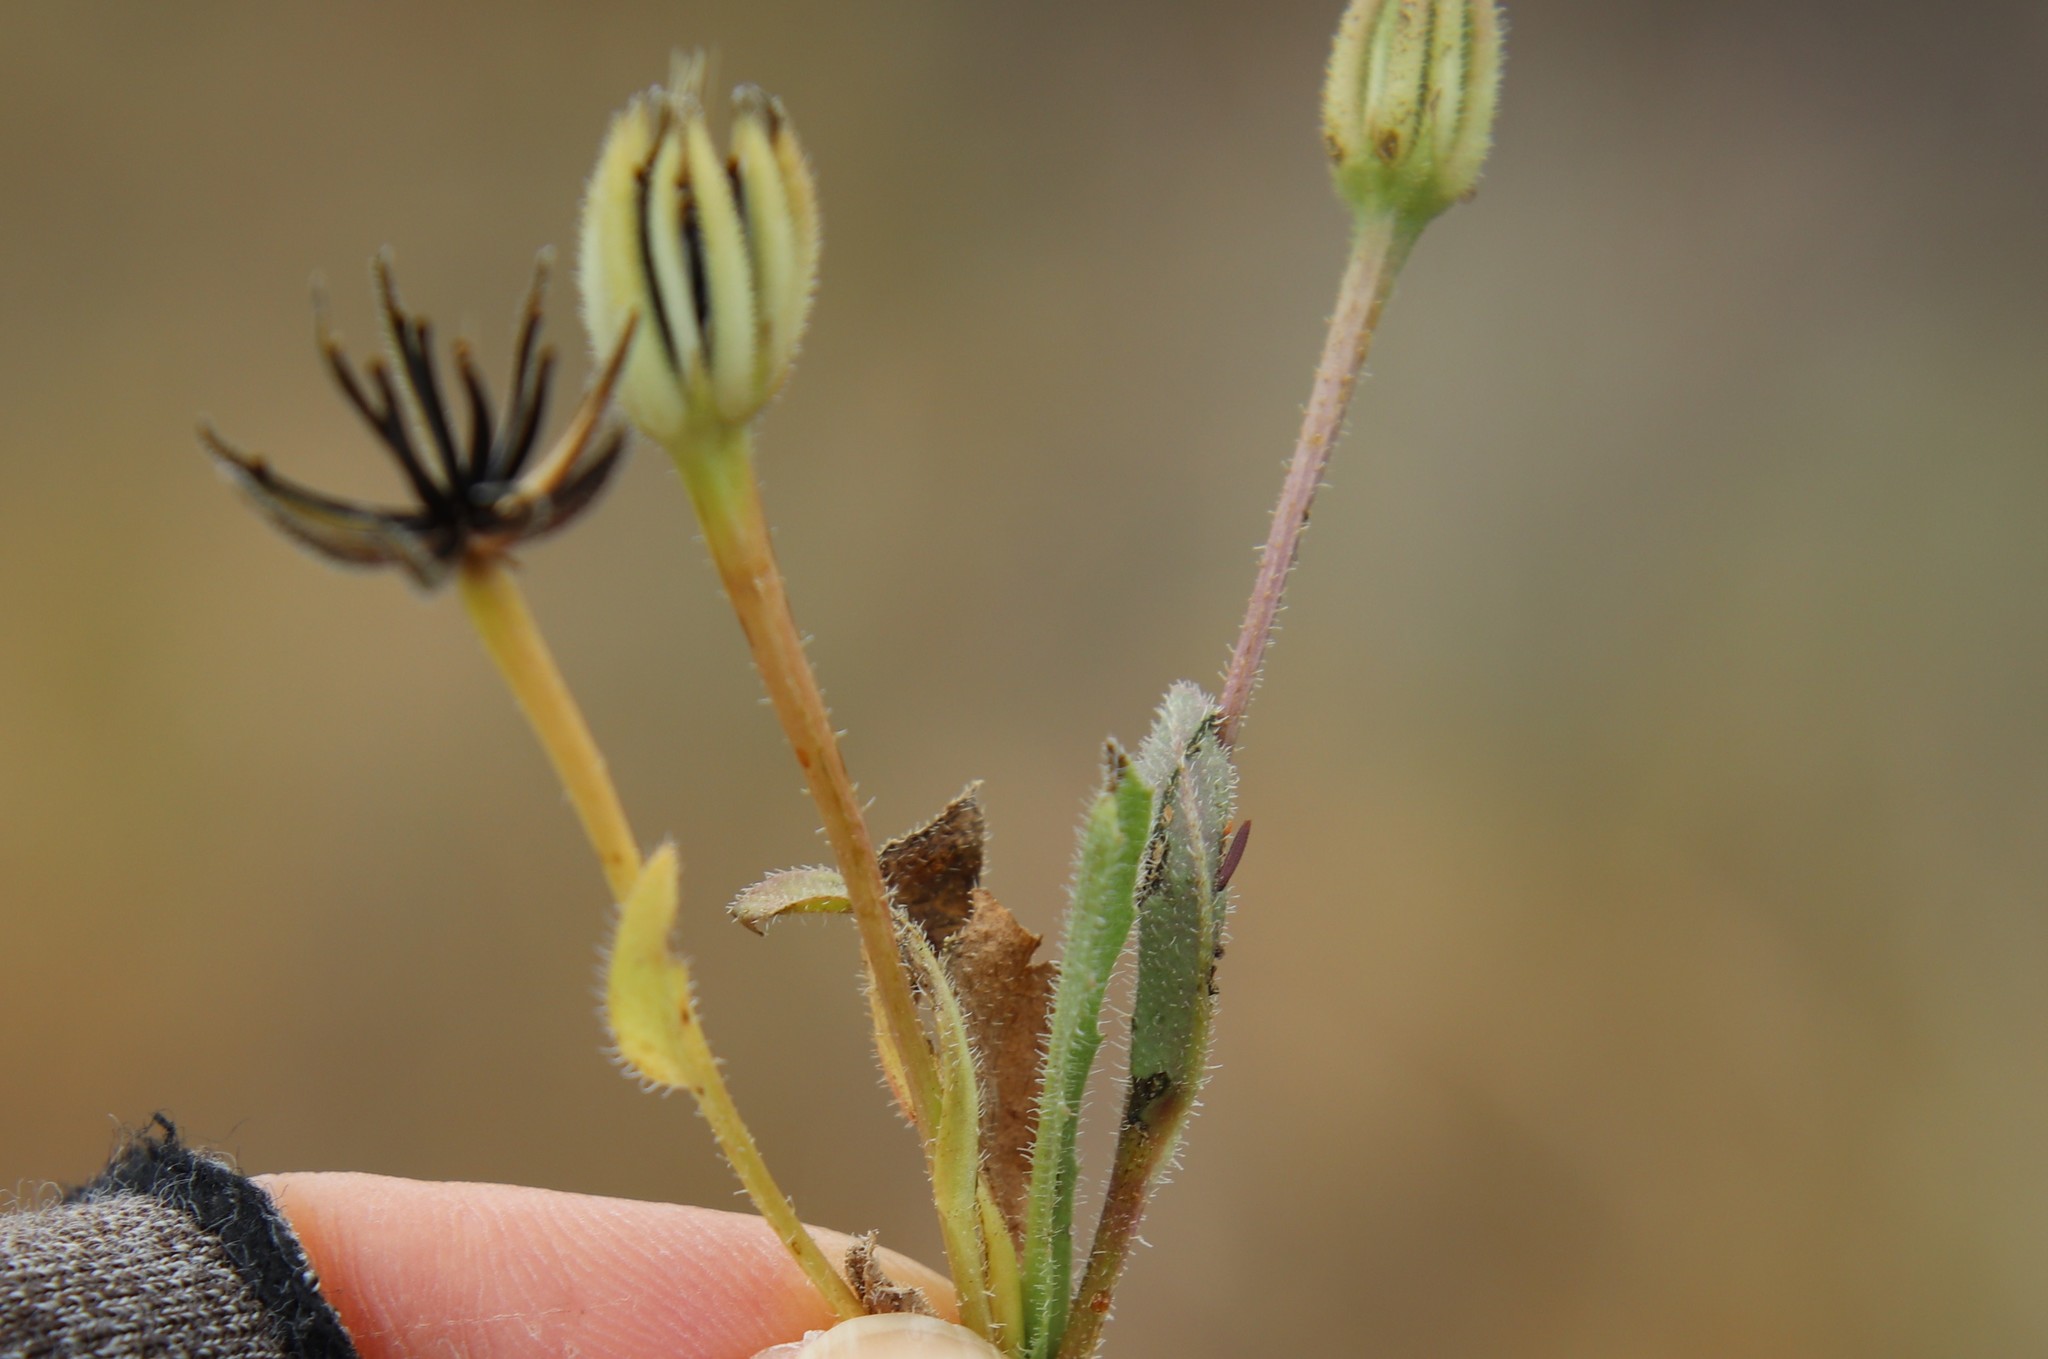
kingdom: Plantae
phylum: Tracheophyta
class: Magnoliopsida
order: Asterales
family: Asteraceae
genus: Hedypnois
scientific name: Hedypnois rhagadioloides
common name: Cretan weed
